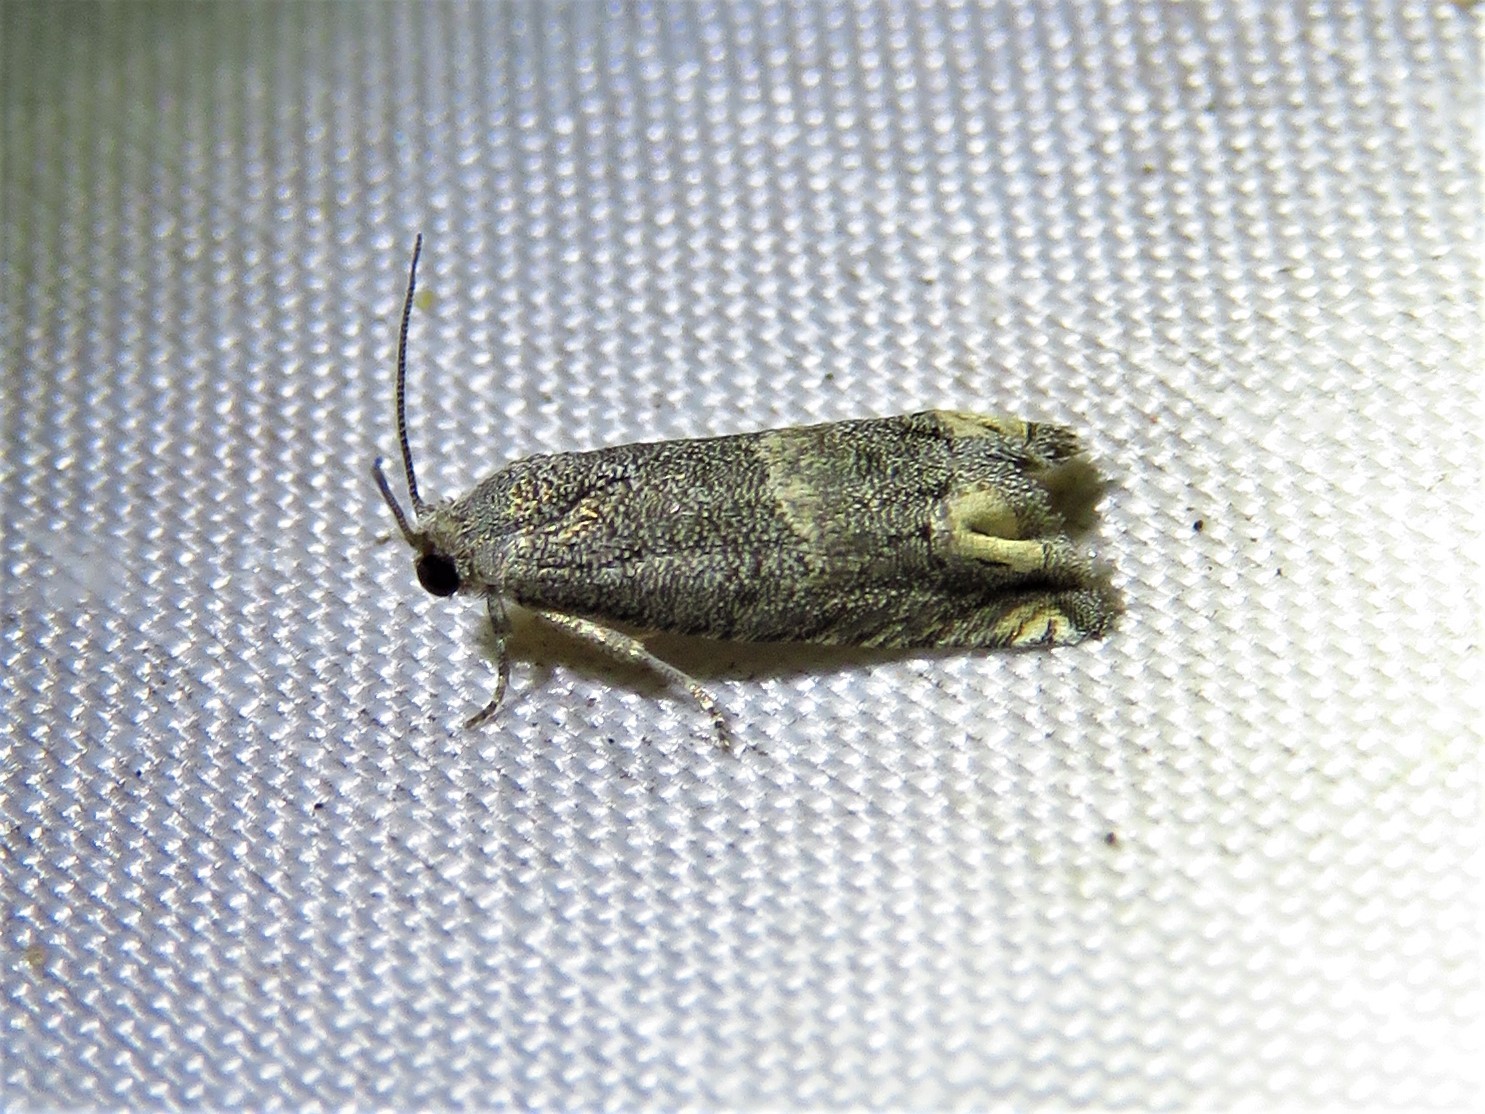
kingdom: Animalia
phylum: Arthropoda
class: Insecta
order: Lepidoptera
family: Tortricidae
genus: Epiblema
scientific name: Epiblema luctuosissima
